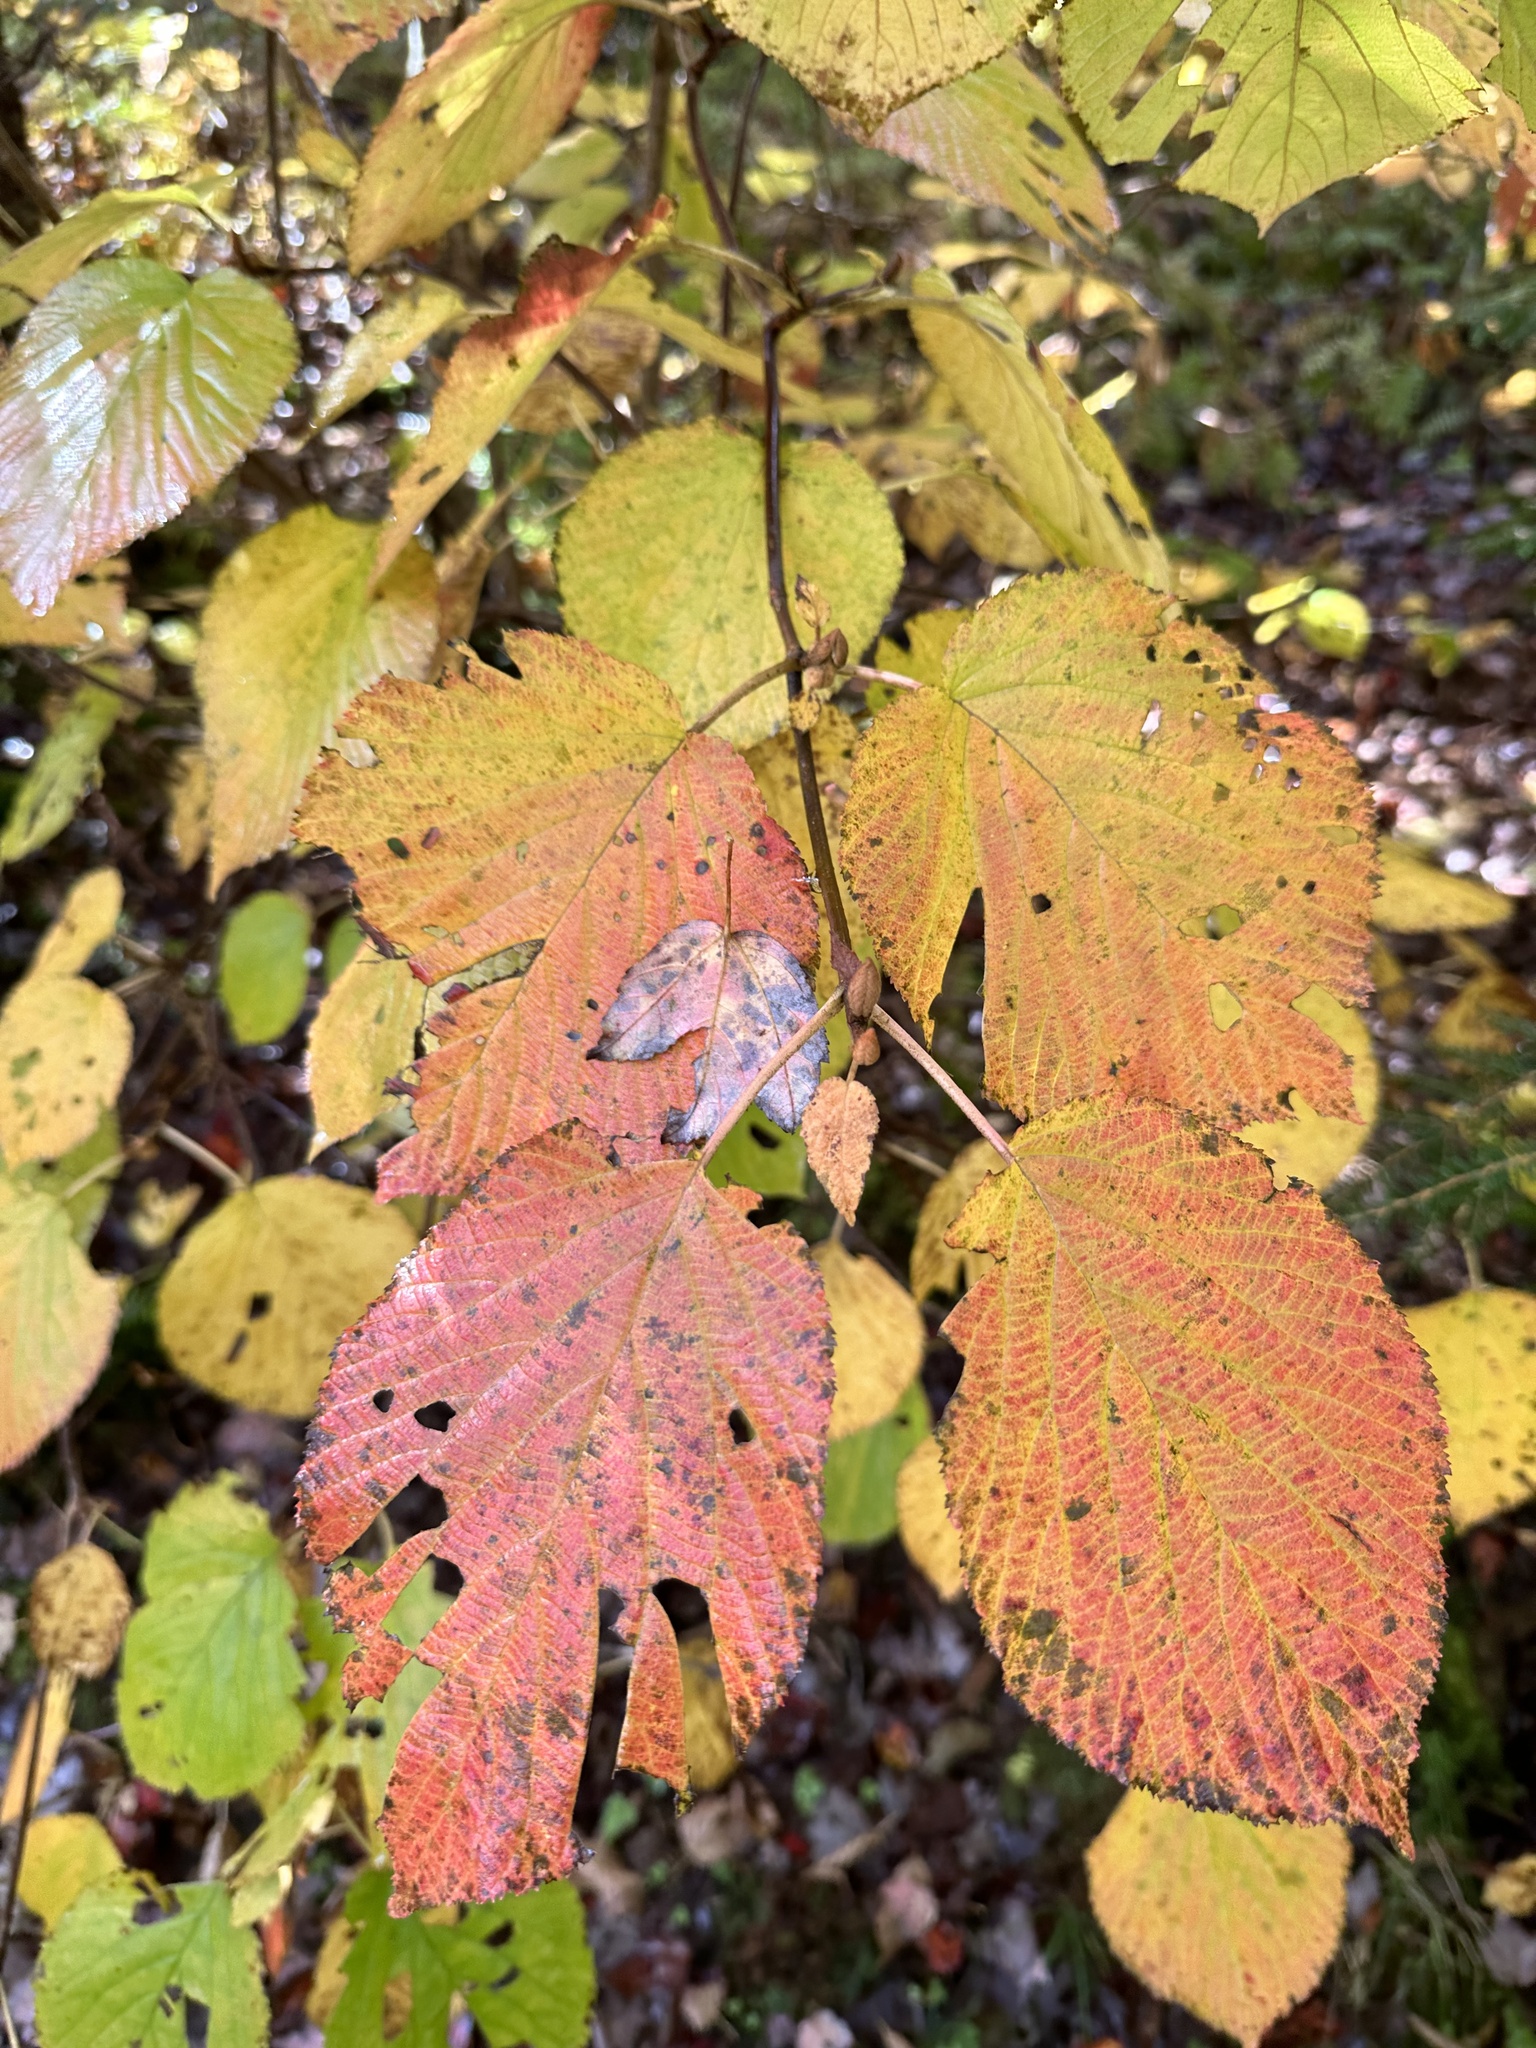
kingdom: Plantae
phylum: Tracheophyta
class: Magnoliopsida
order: Dipsacales
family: Viburnaceae
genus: Viburnum
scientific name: Viburnum lantanoides
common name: Hobblebush
